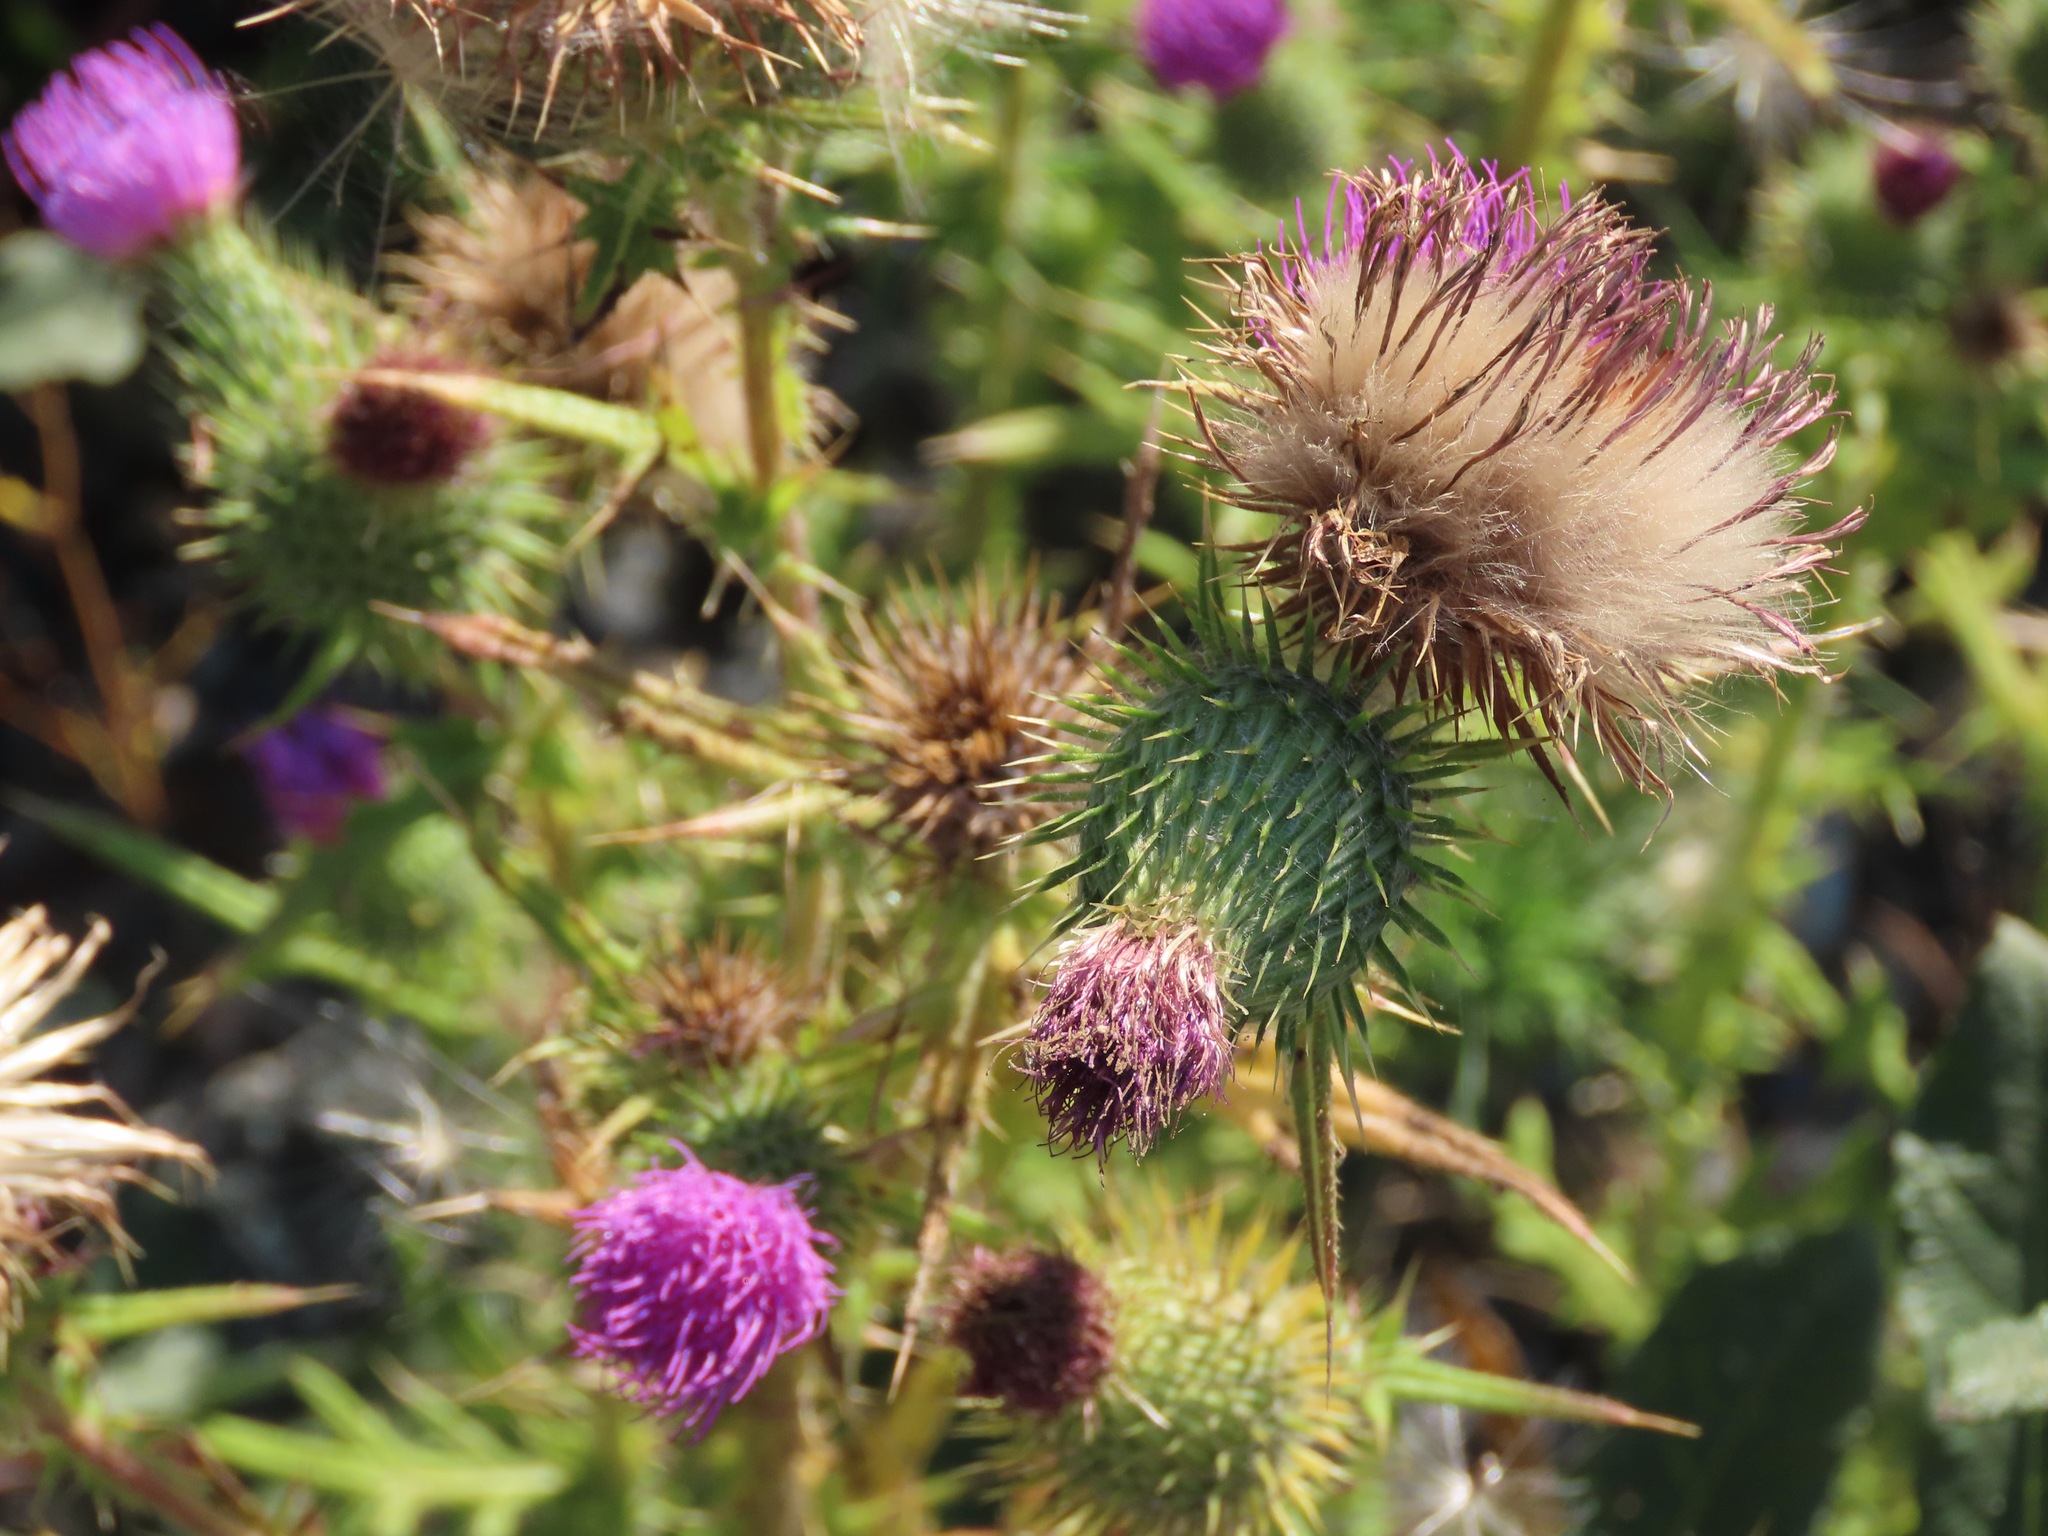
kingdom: Plantae
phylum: Tracheophyta
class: Magnoliopsida
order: Asterales
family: Asteraceae
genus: Cirsium
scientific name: Cirsium vulgare
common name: Bull thistle
